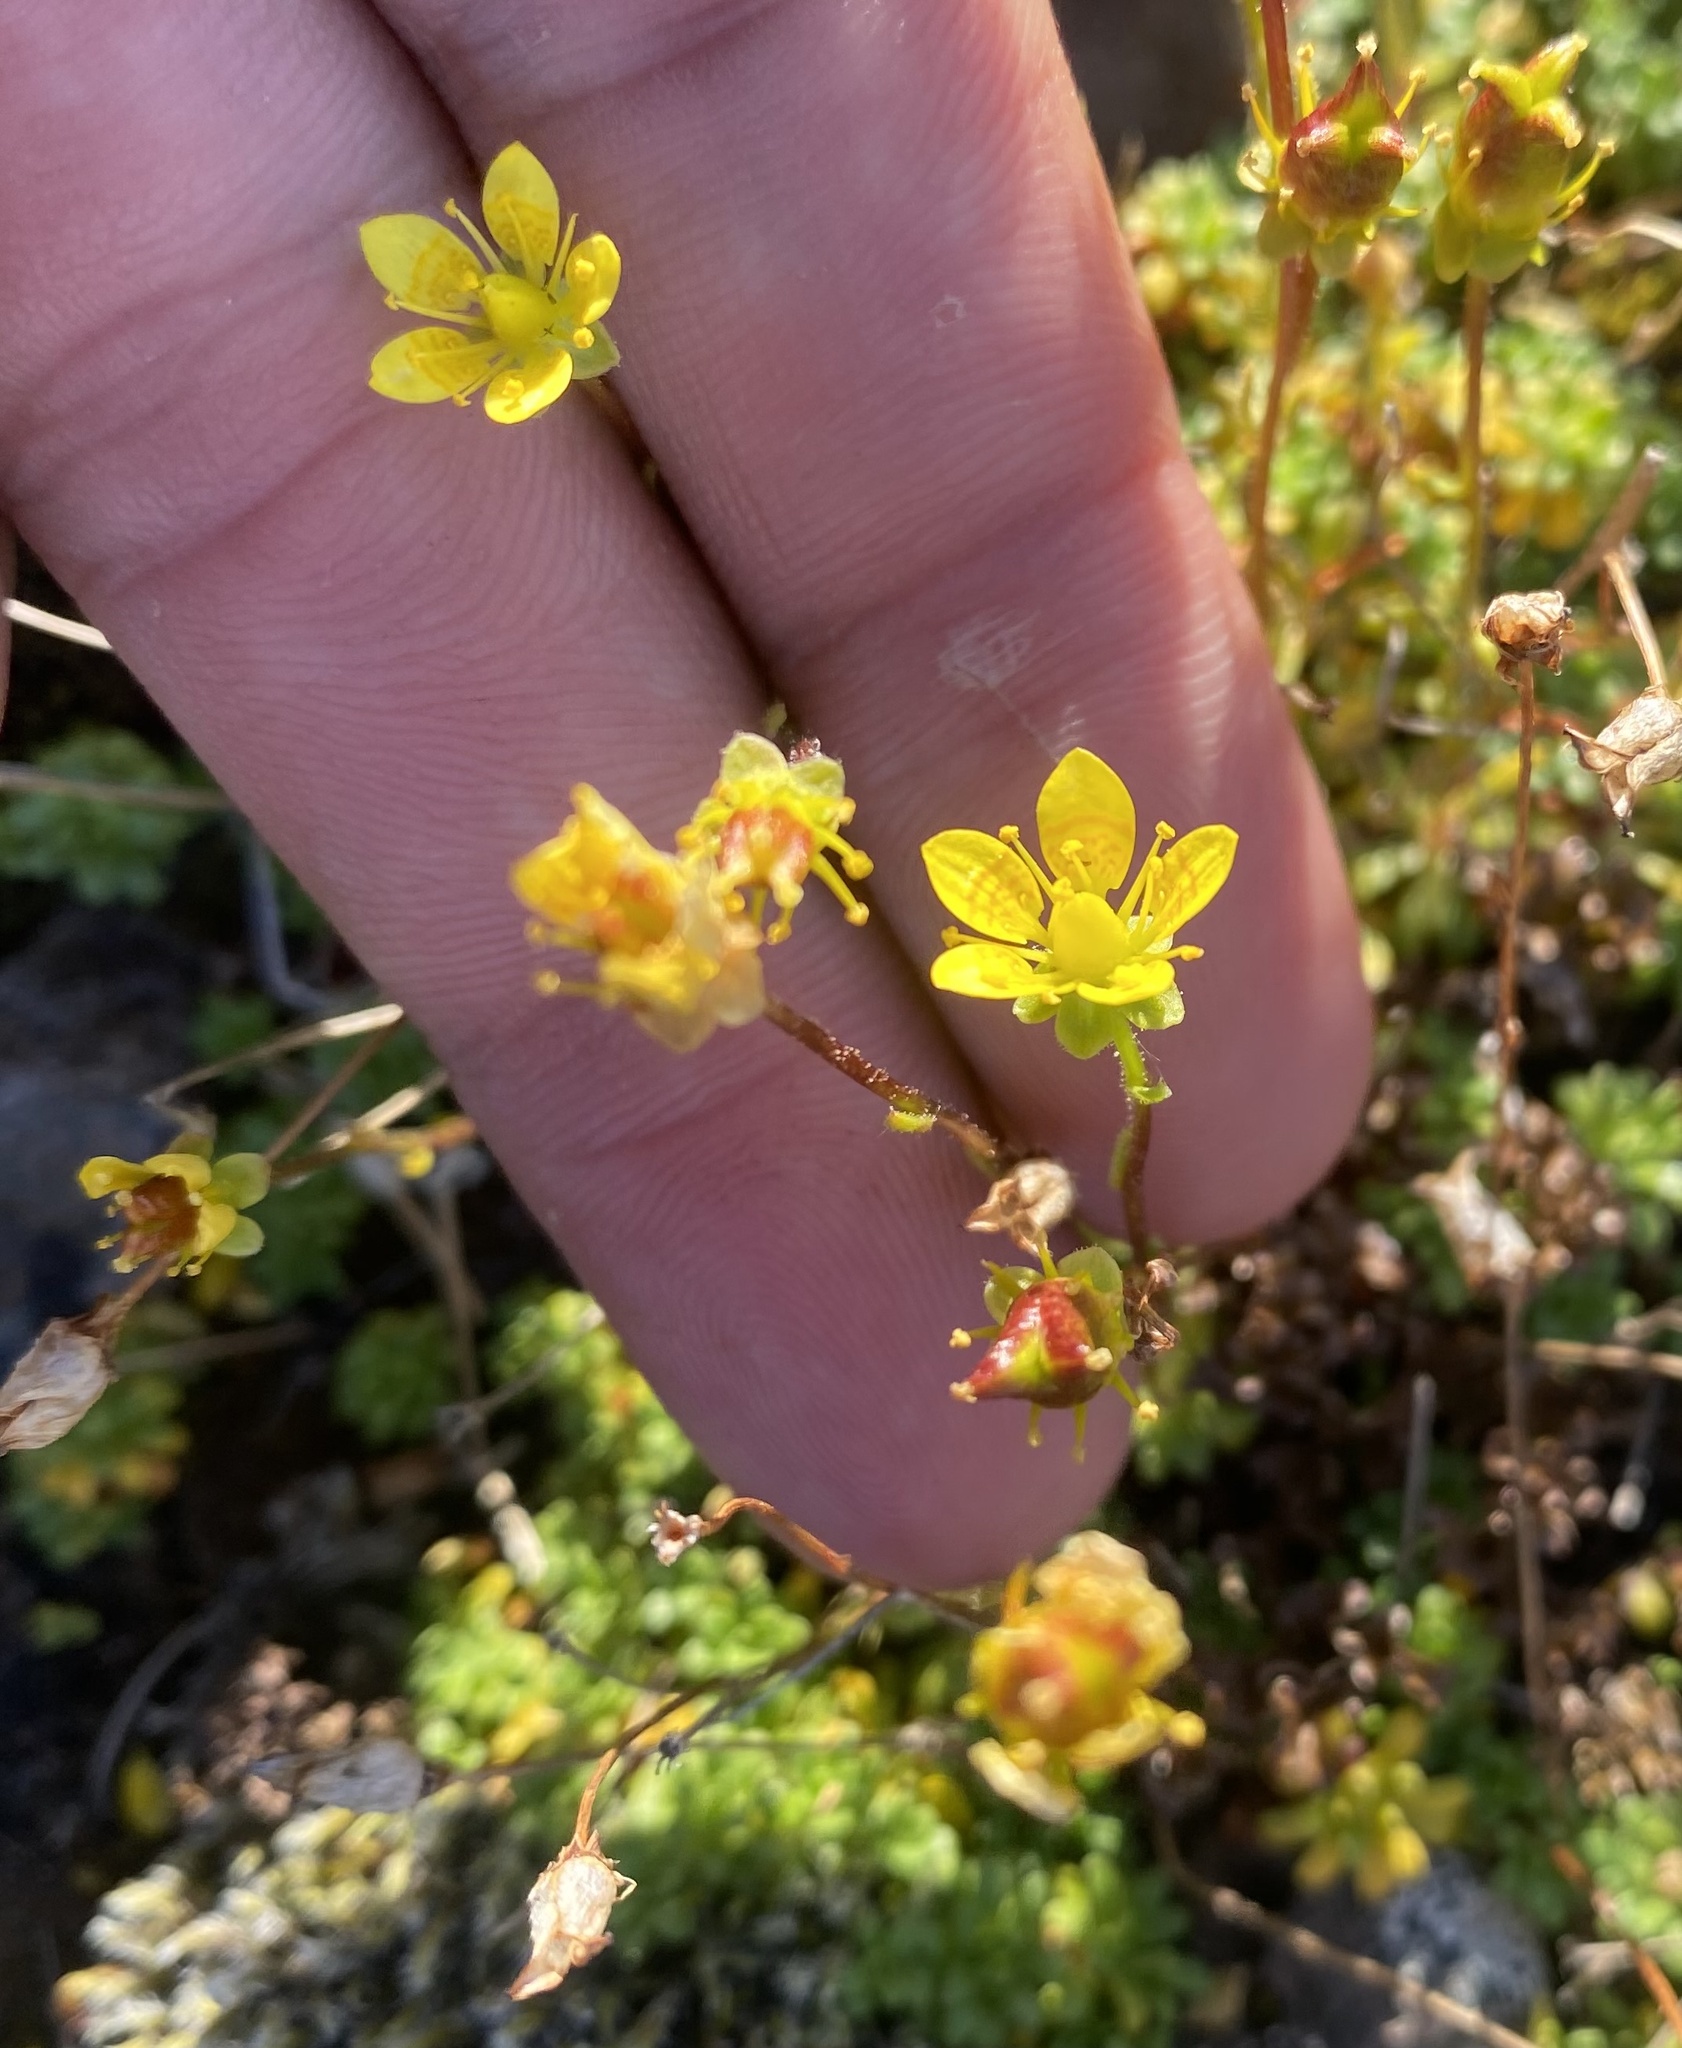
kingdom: Plantae
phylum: Tracheophyta
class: Magnoliopsida
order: Saxifragales
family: Saxifragaceae
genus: Saxifraga
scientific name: Saxifraga serpyllifolia
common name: Thyme-leaved saxifrage
